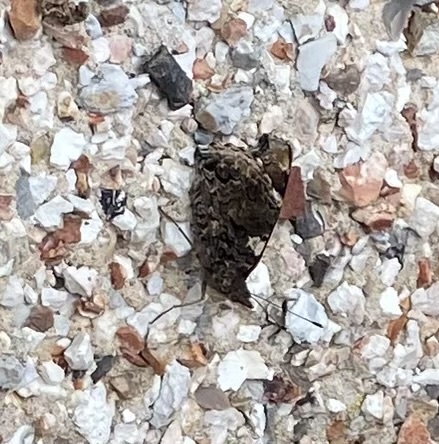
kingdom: Animalia
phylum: Arthropoda
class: Insecta
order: Lepidoptera
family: Nymphalidae
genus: Vanessa
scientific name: Vanessa atalanta
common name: Red admiral
